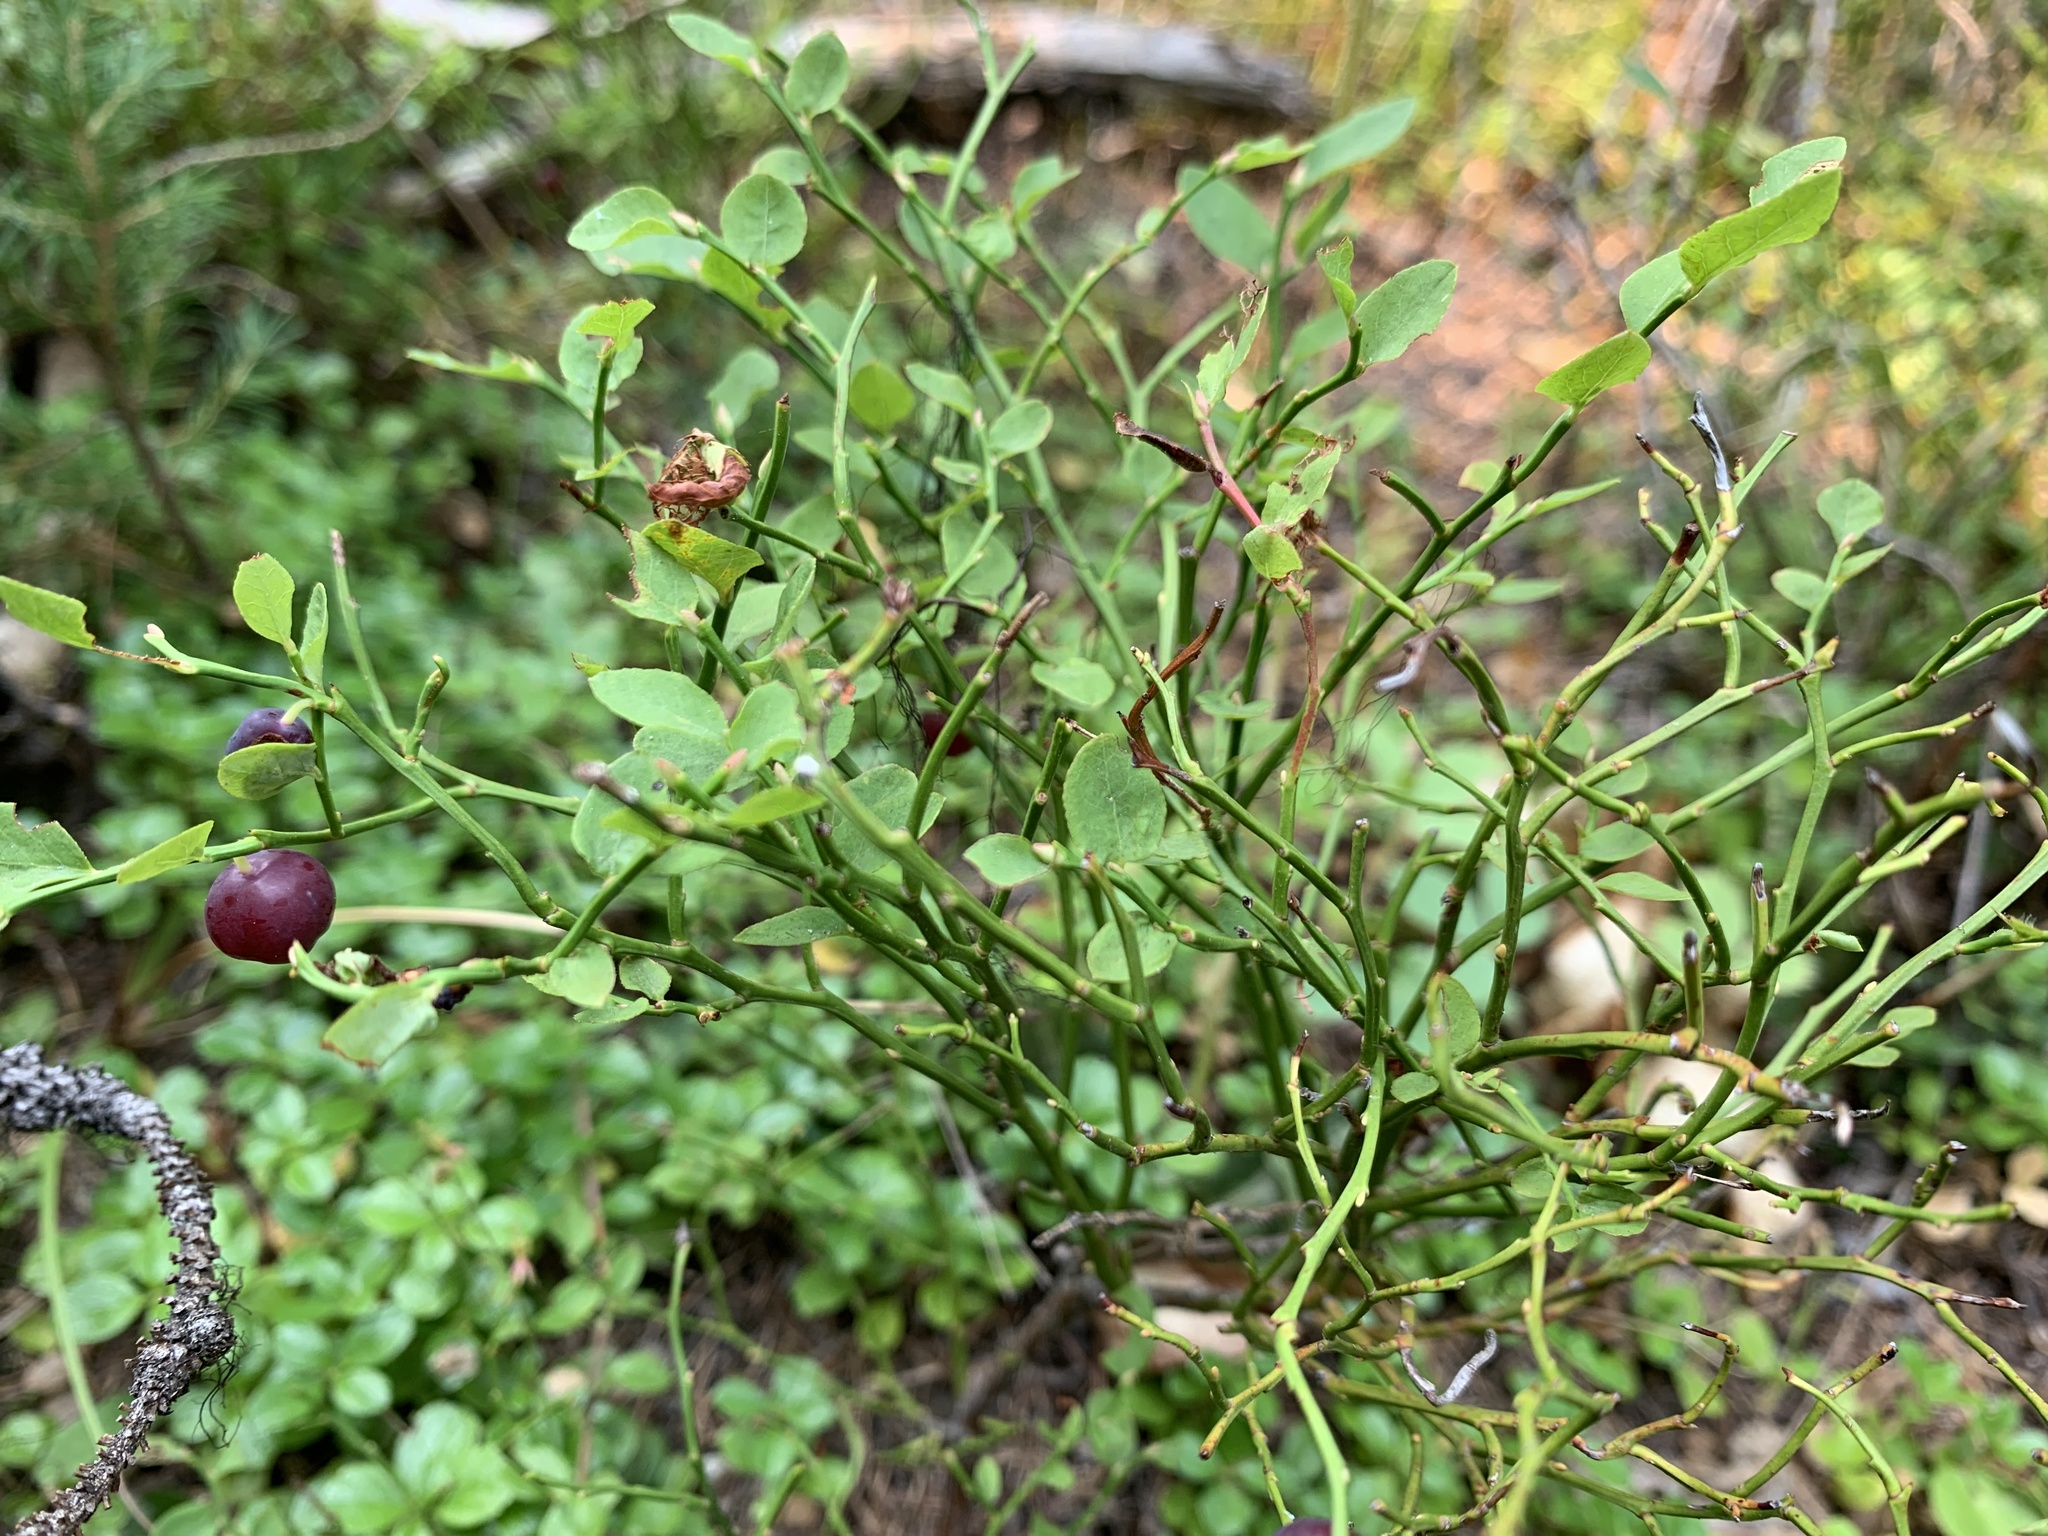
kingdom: Plantae
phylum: Tracheophyta
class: Magnoliopsida
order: Ericales
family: Ericaceae
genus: Vaccinium
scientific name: Vaccinium scoparium
